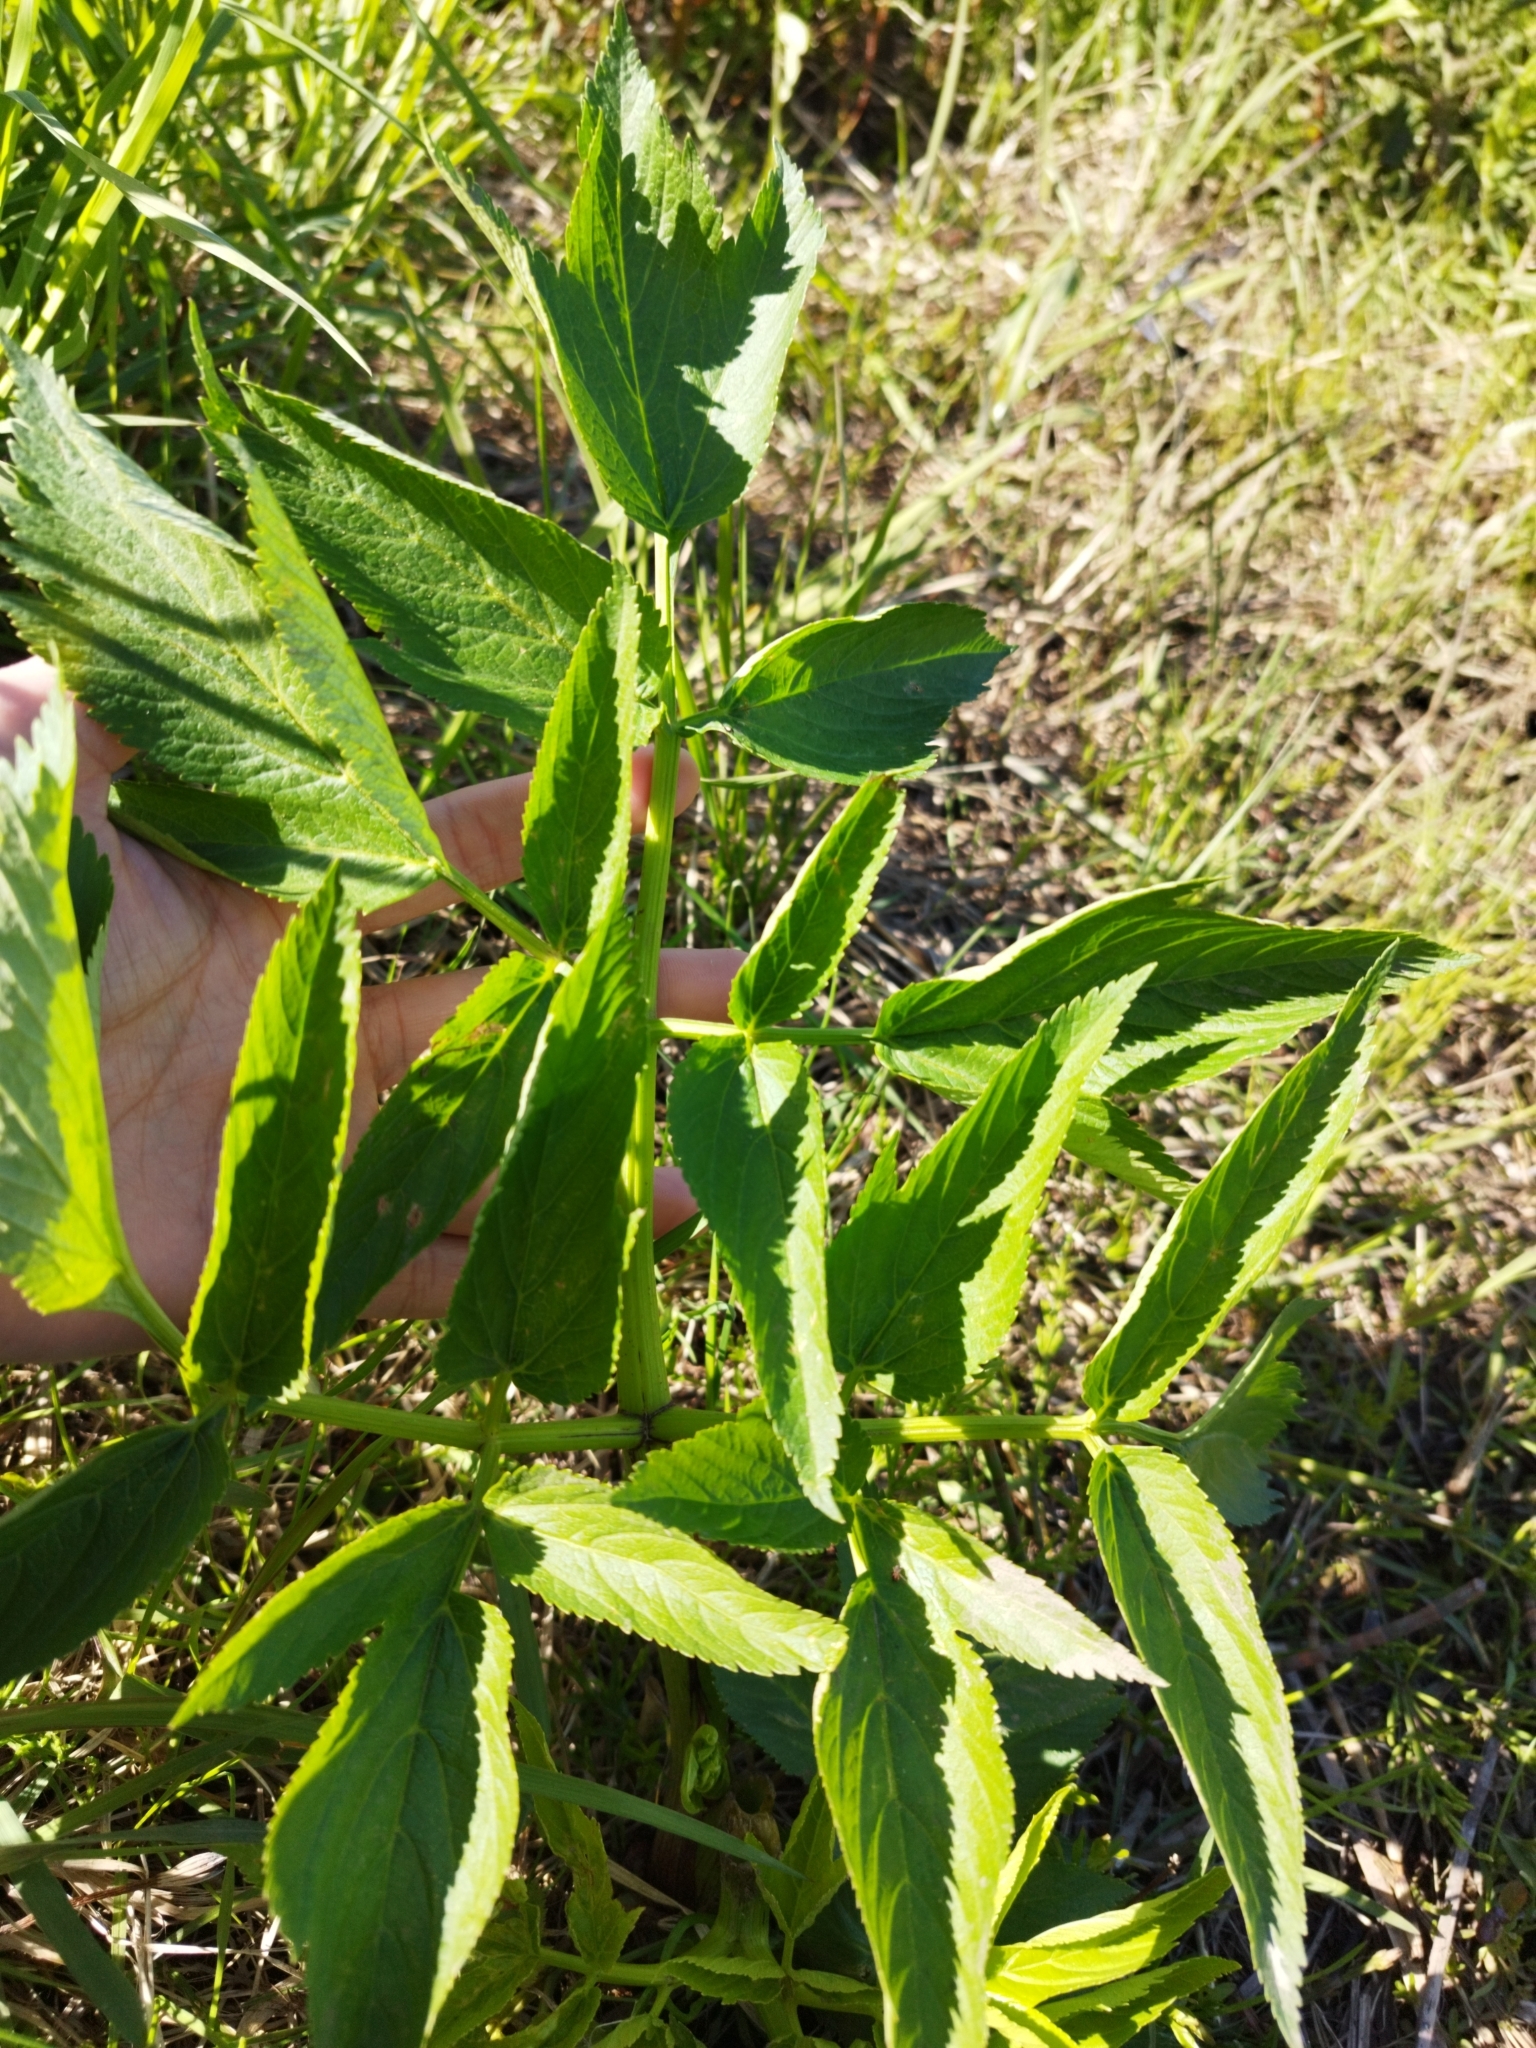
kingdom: Plantae
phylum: Tracheophyta
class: Magnoliopsida
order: Apiales
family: Apiaceae
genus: Angelica
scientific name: Angelica sylvestris
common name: Wild angelica
